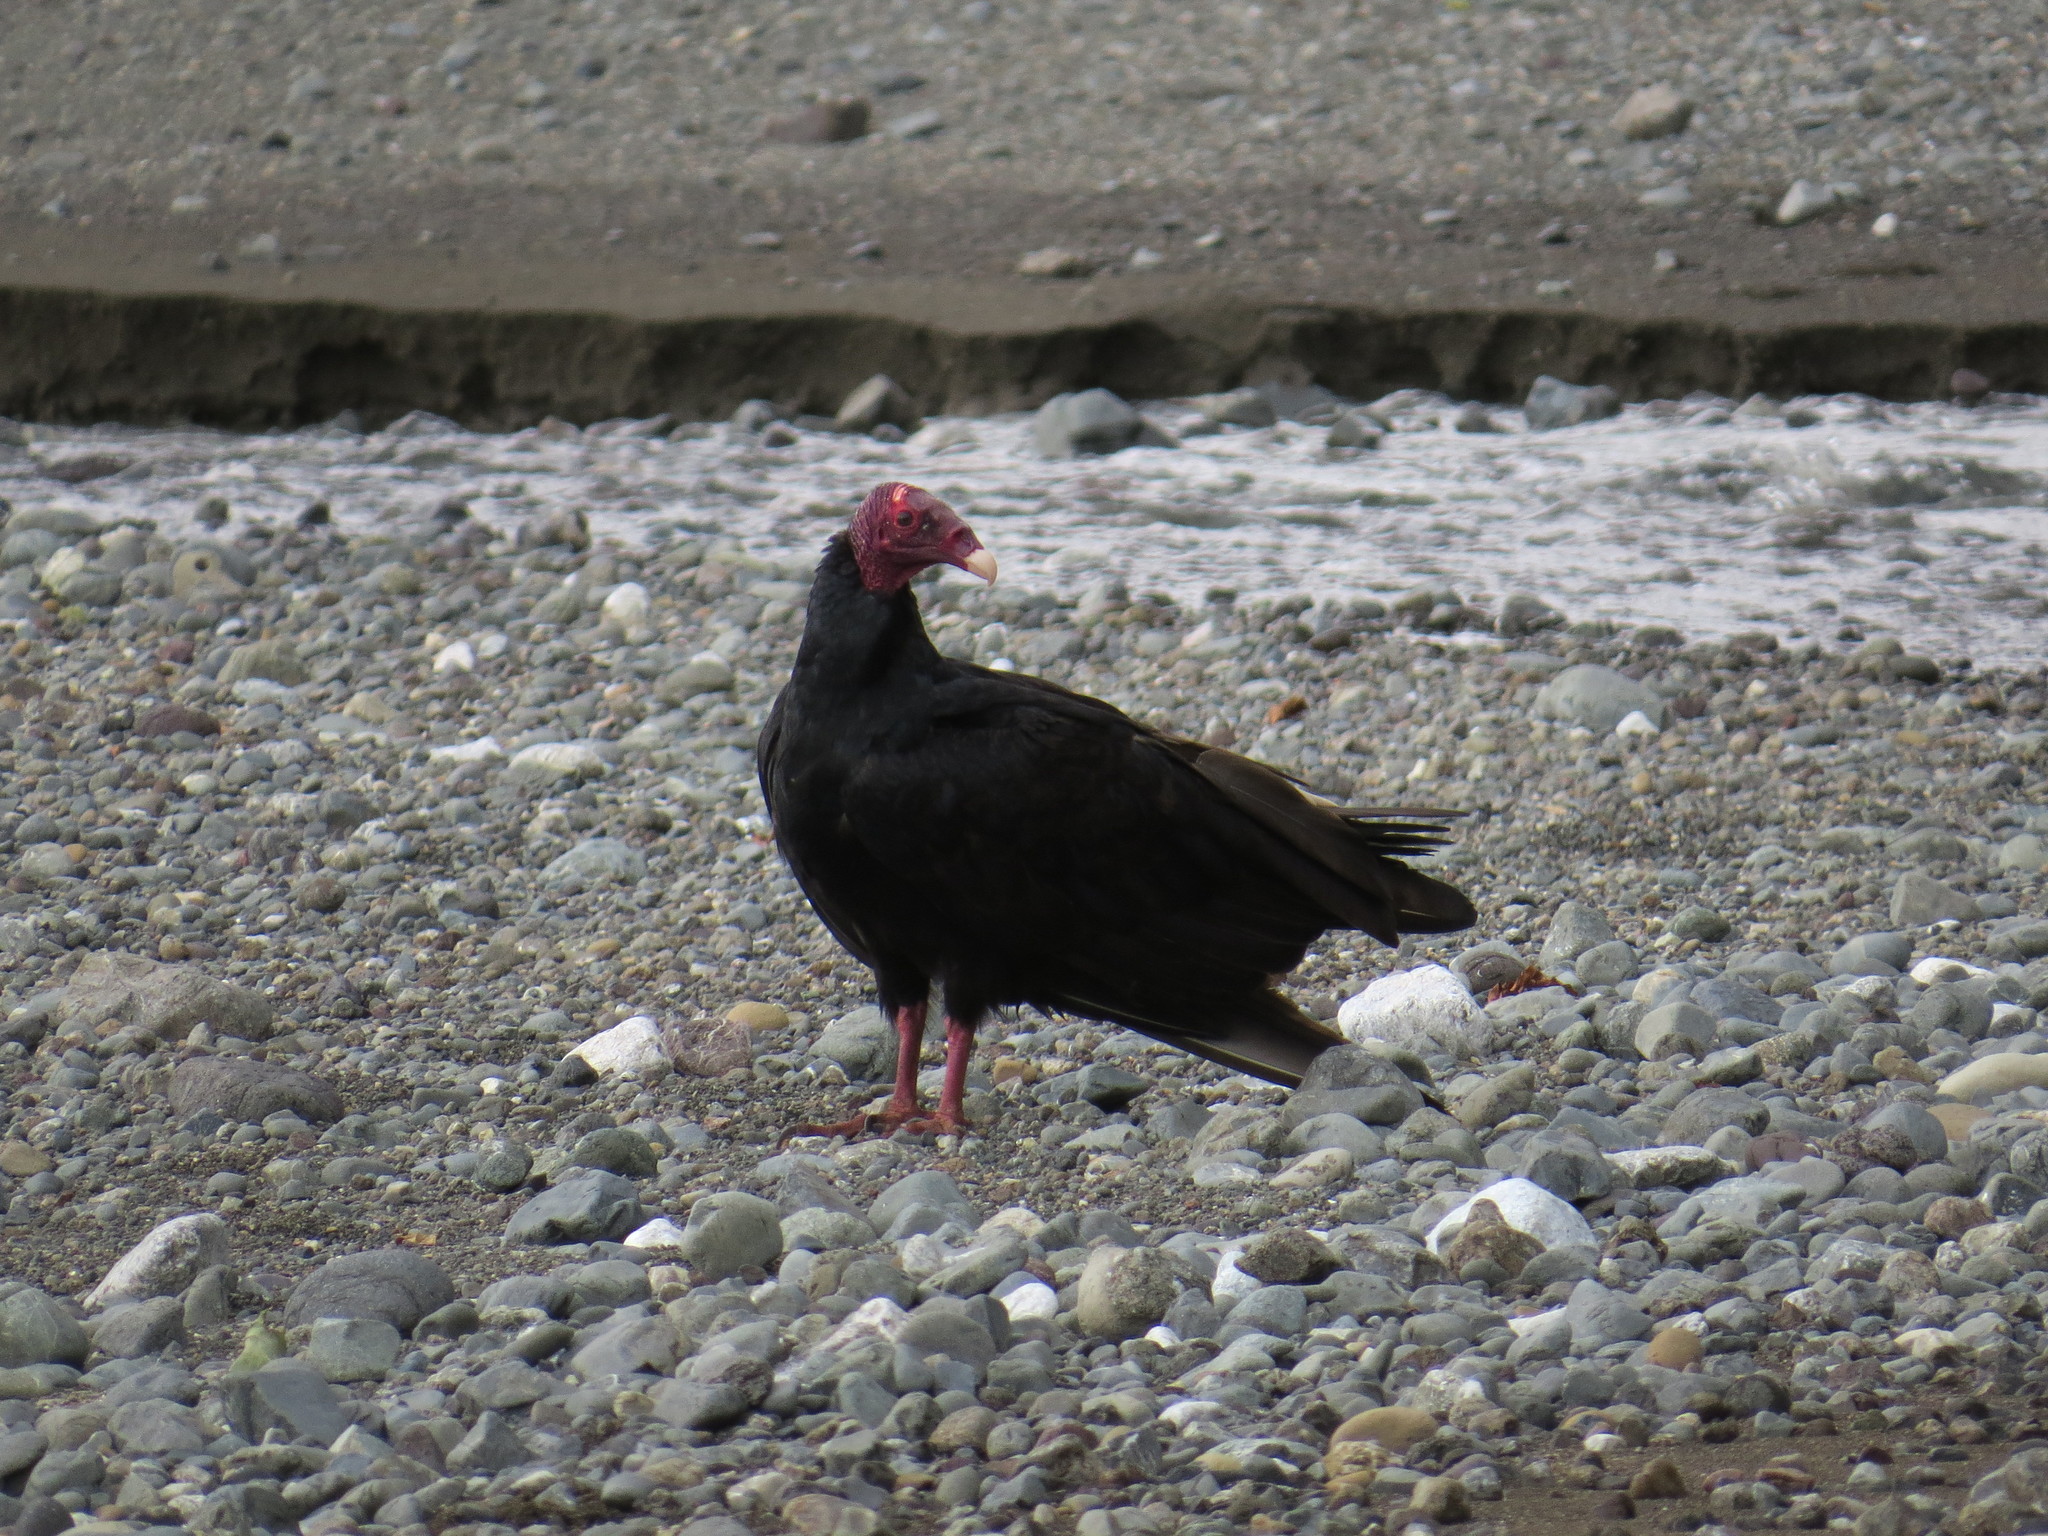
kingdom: Animalia
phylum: Chordata
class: Aves
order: Accipitriformes
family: Cathartidae
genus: Cathartes
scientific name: Cathartes aura
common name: Turkey vulture
